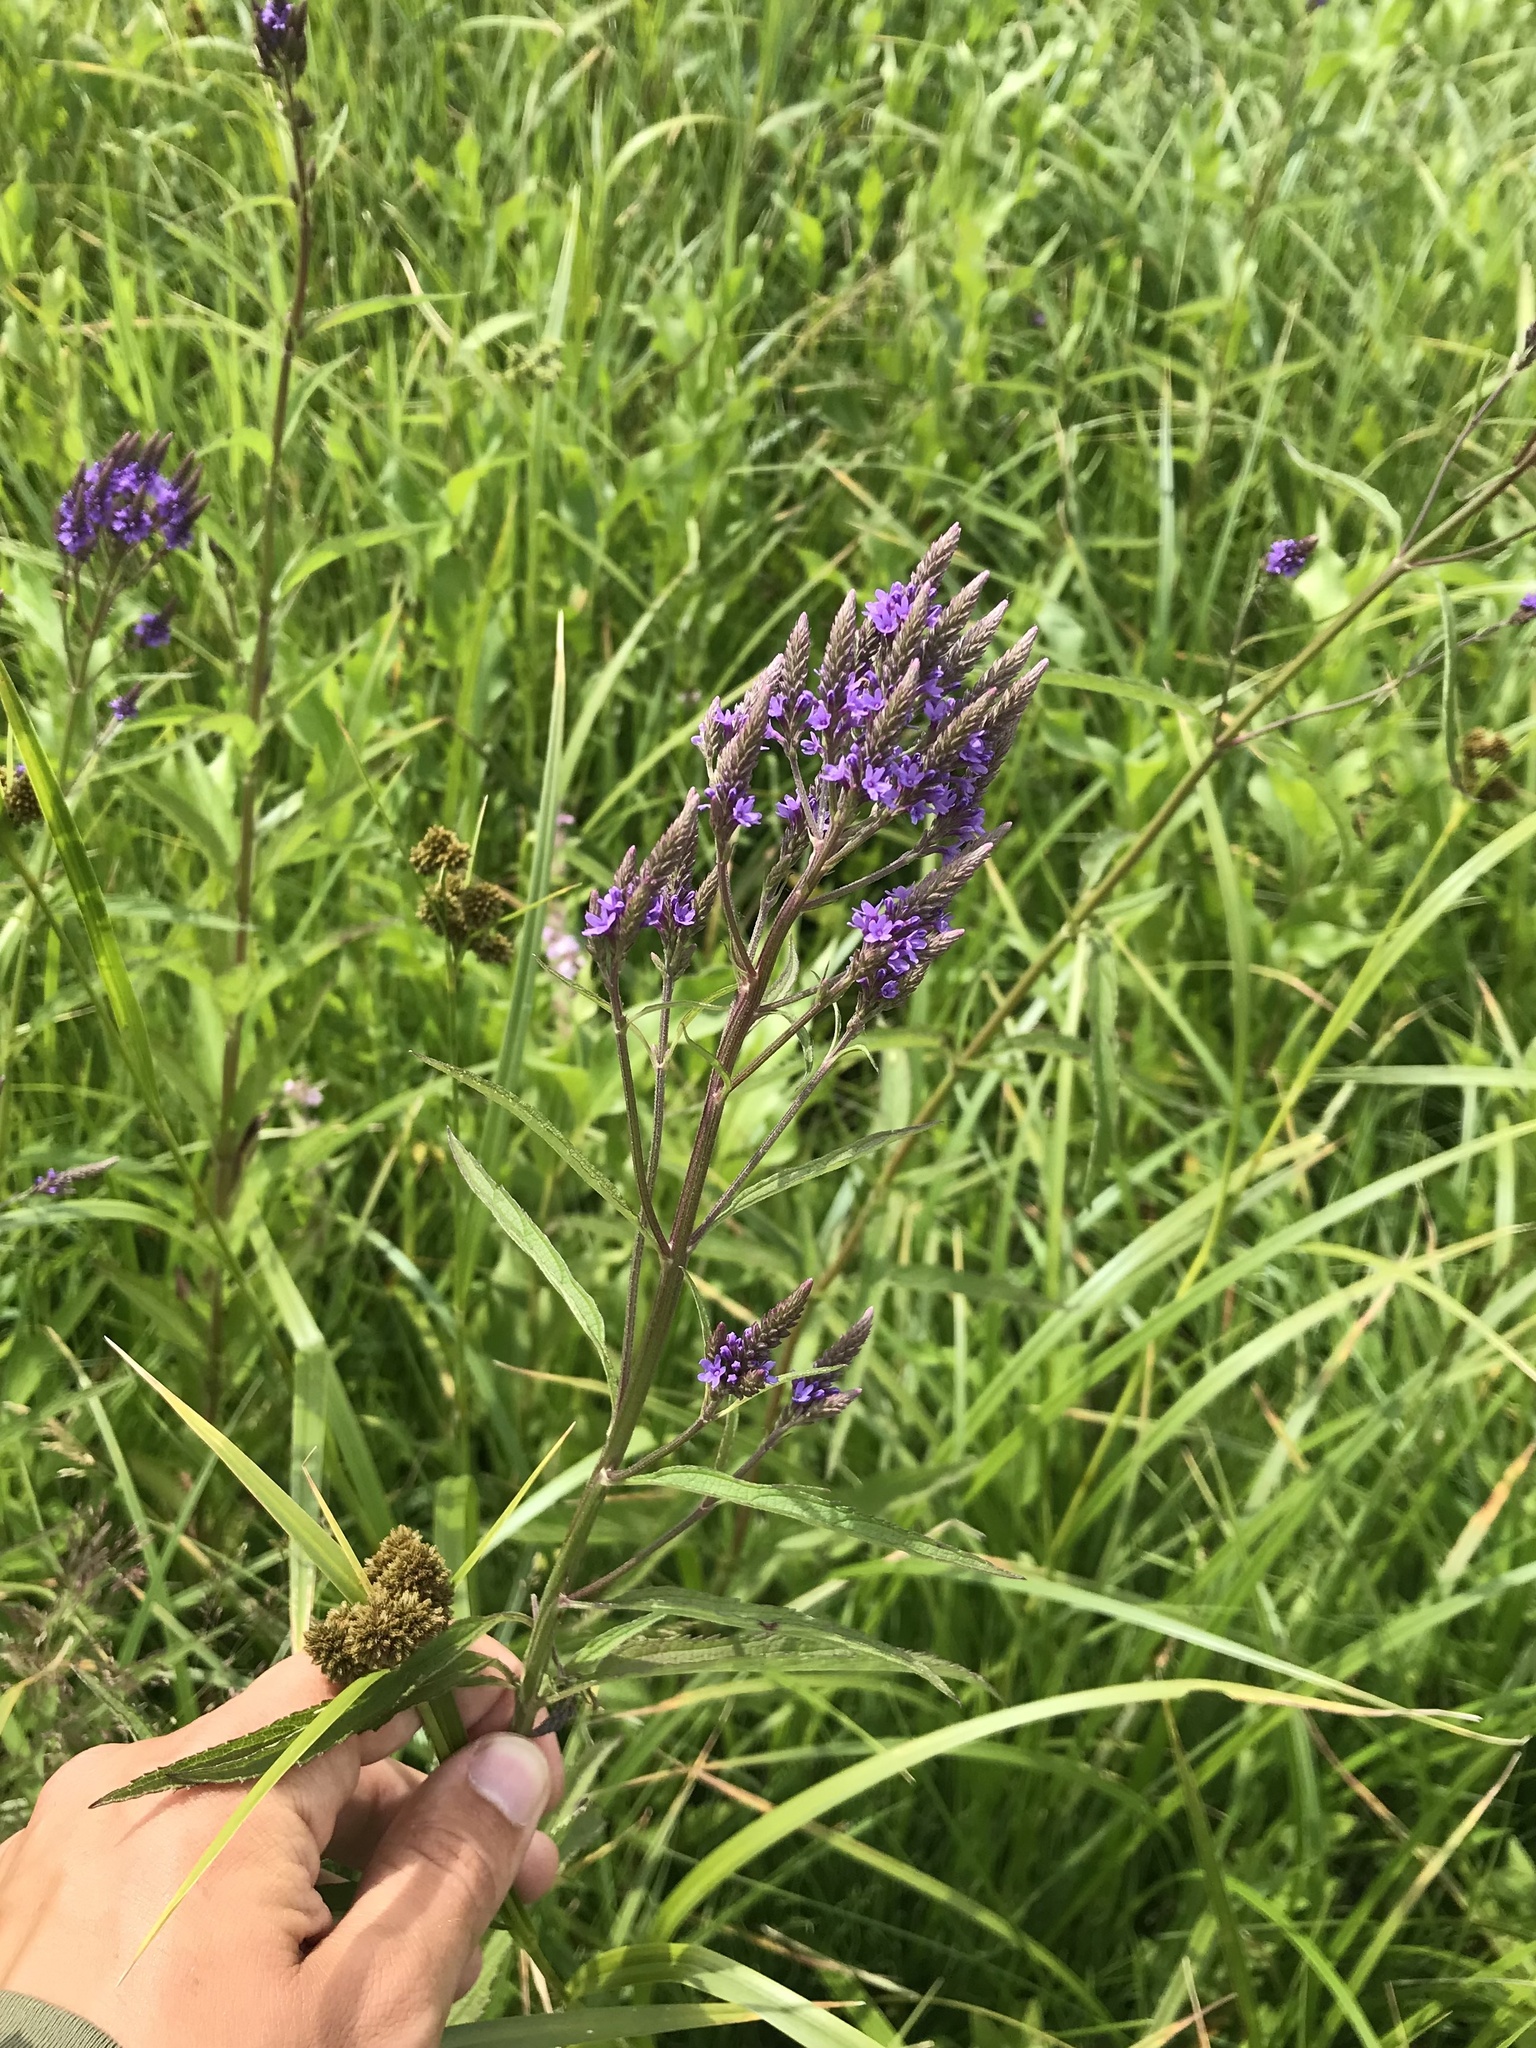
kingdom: Plantae
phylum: Tracheophyta
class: Magnoliopsida
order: Lamiales
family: Verbenaceae
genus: Verbena
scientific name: Verbena hastata
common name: American blue vervain
